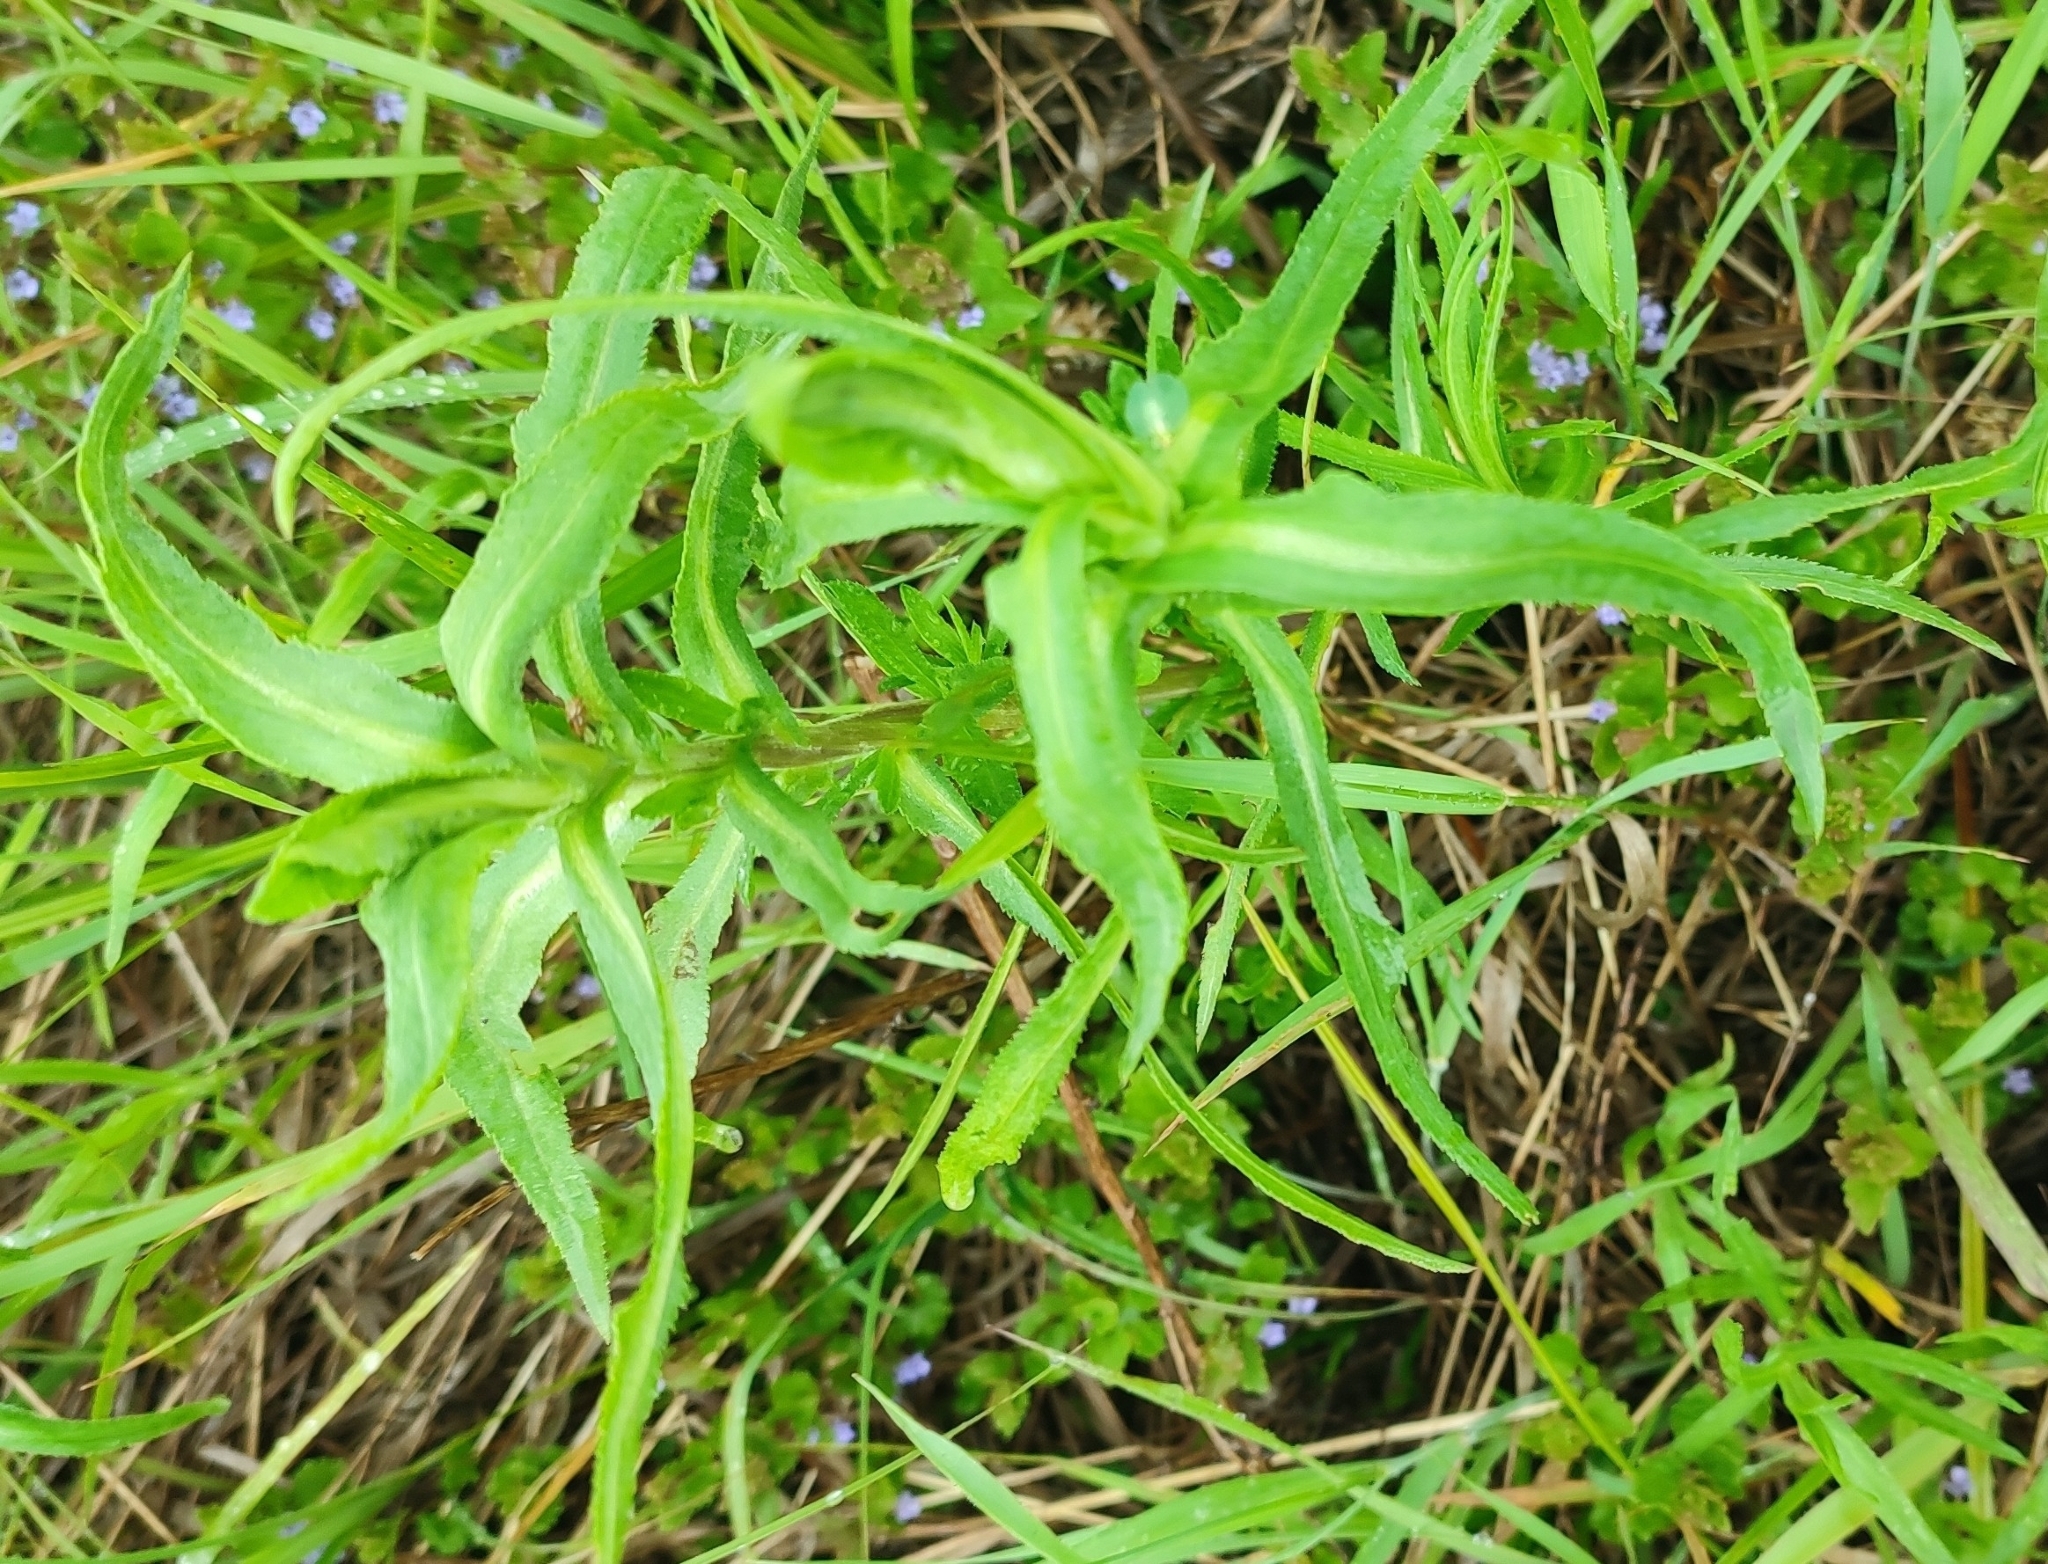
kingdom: Plantae
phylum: Tracheophyta
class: Magnoliopsida
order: Asterales
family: Asteraceae
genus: Achillea
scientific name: Achillea salicifolia
